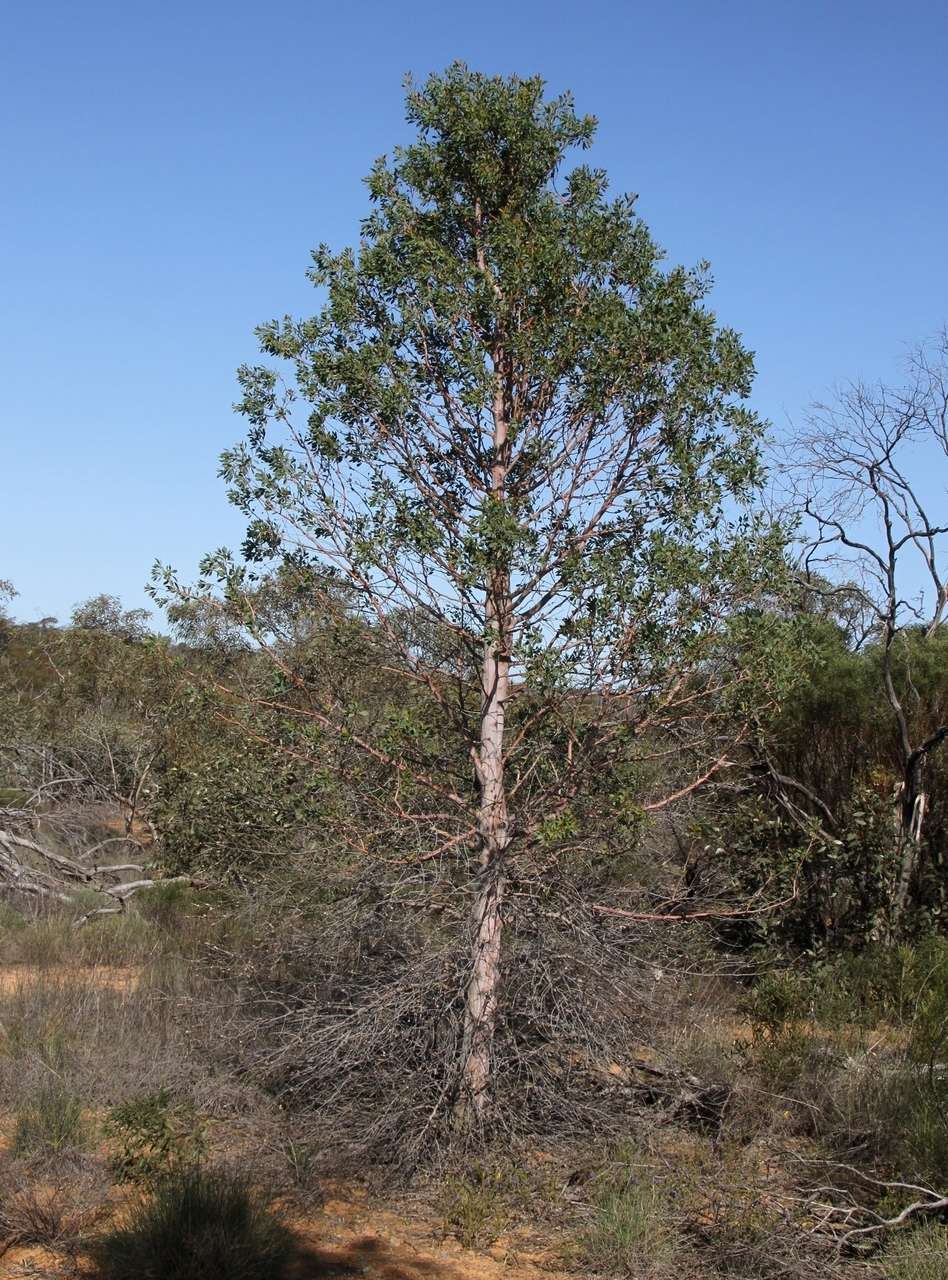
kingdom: Plantae
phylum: Tracheophyta
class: Magnoliopsida
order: Brassicales
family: Gyrostemonaceae
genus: Codonocarpus
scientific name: Codonocarpus cotinifolius
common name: Mustardtree
